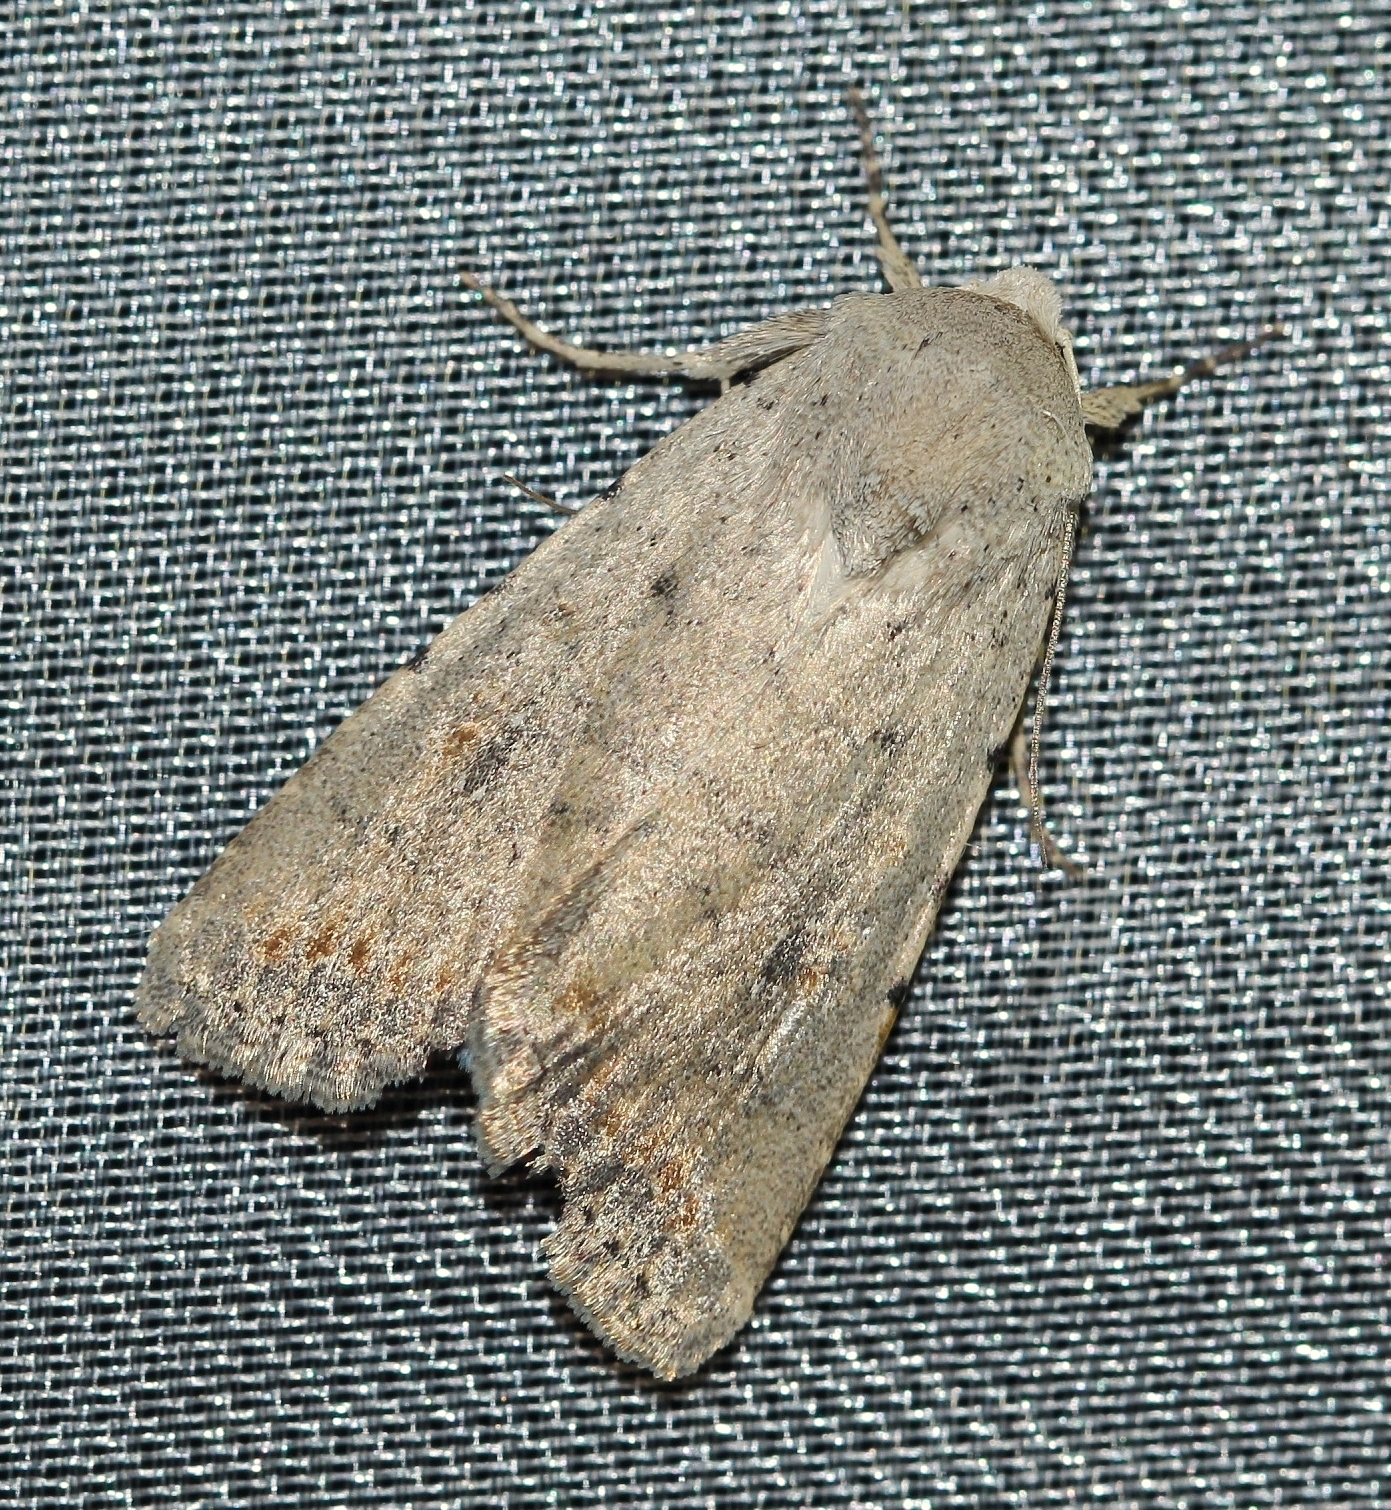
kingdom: Animalia
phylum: Arthropoda
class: Insecta
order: Lepidoptera
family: Noctuidae
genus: Caradrina
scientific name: Caradrina albina
